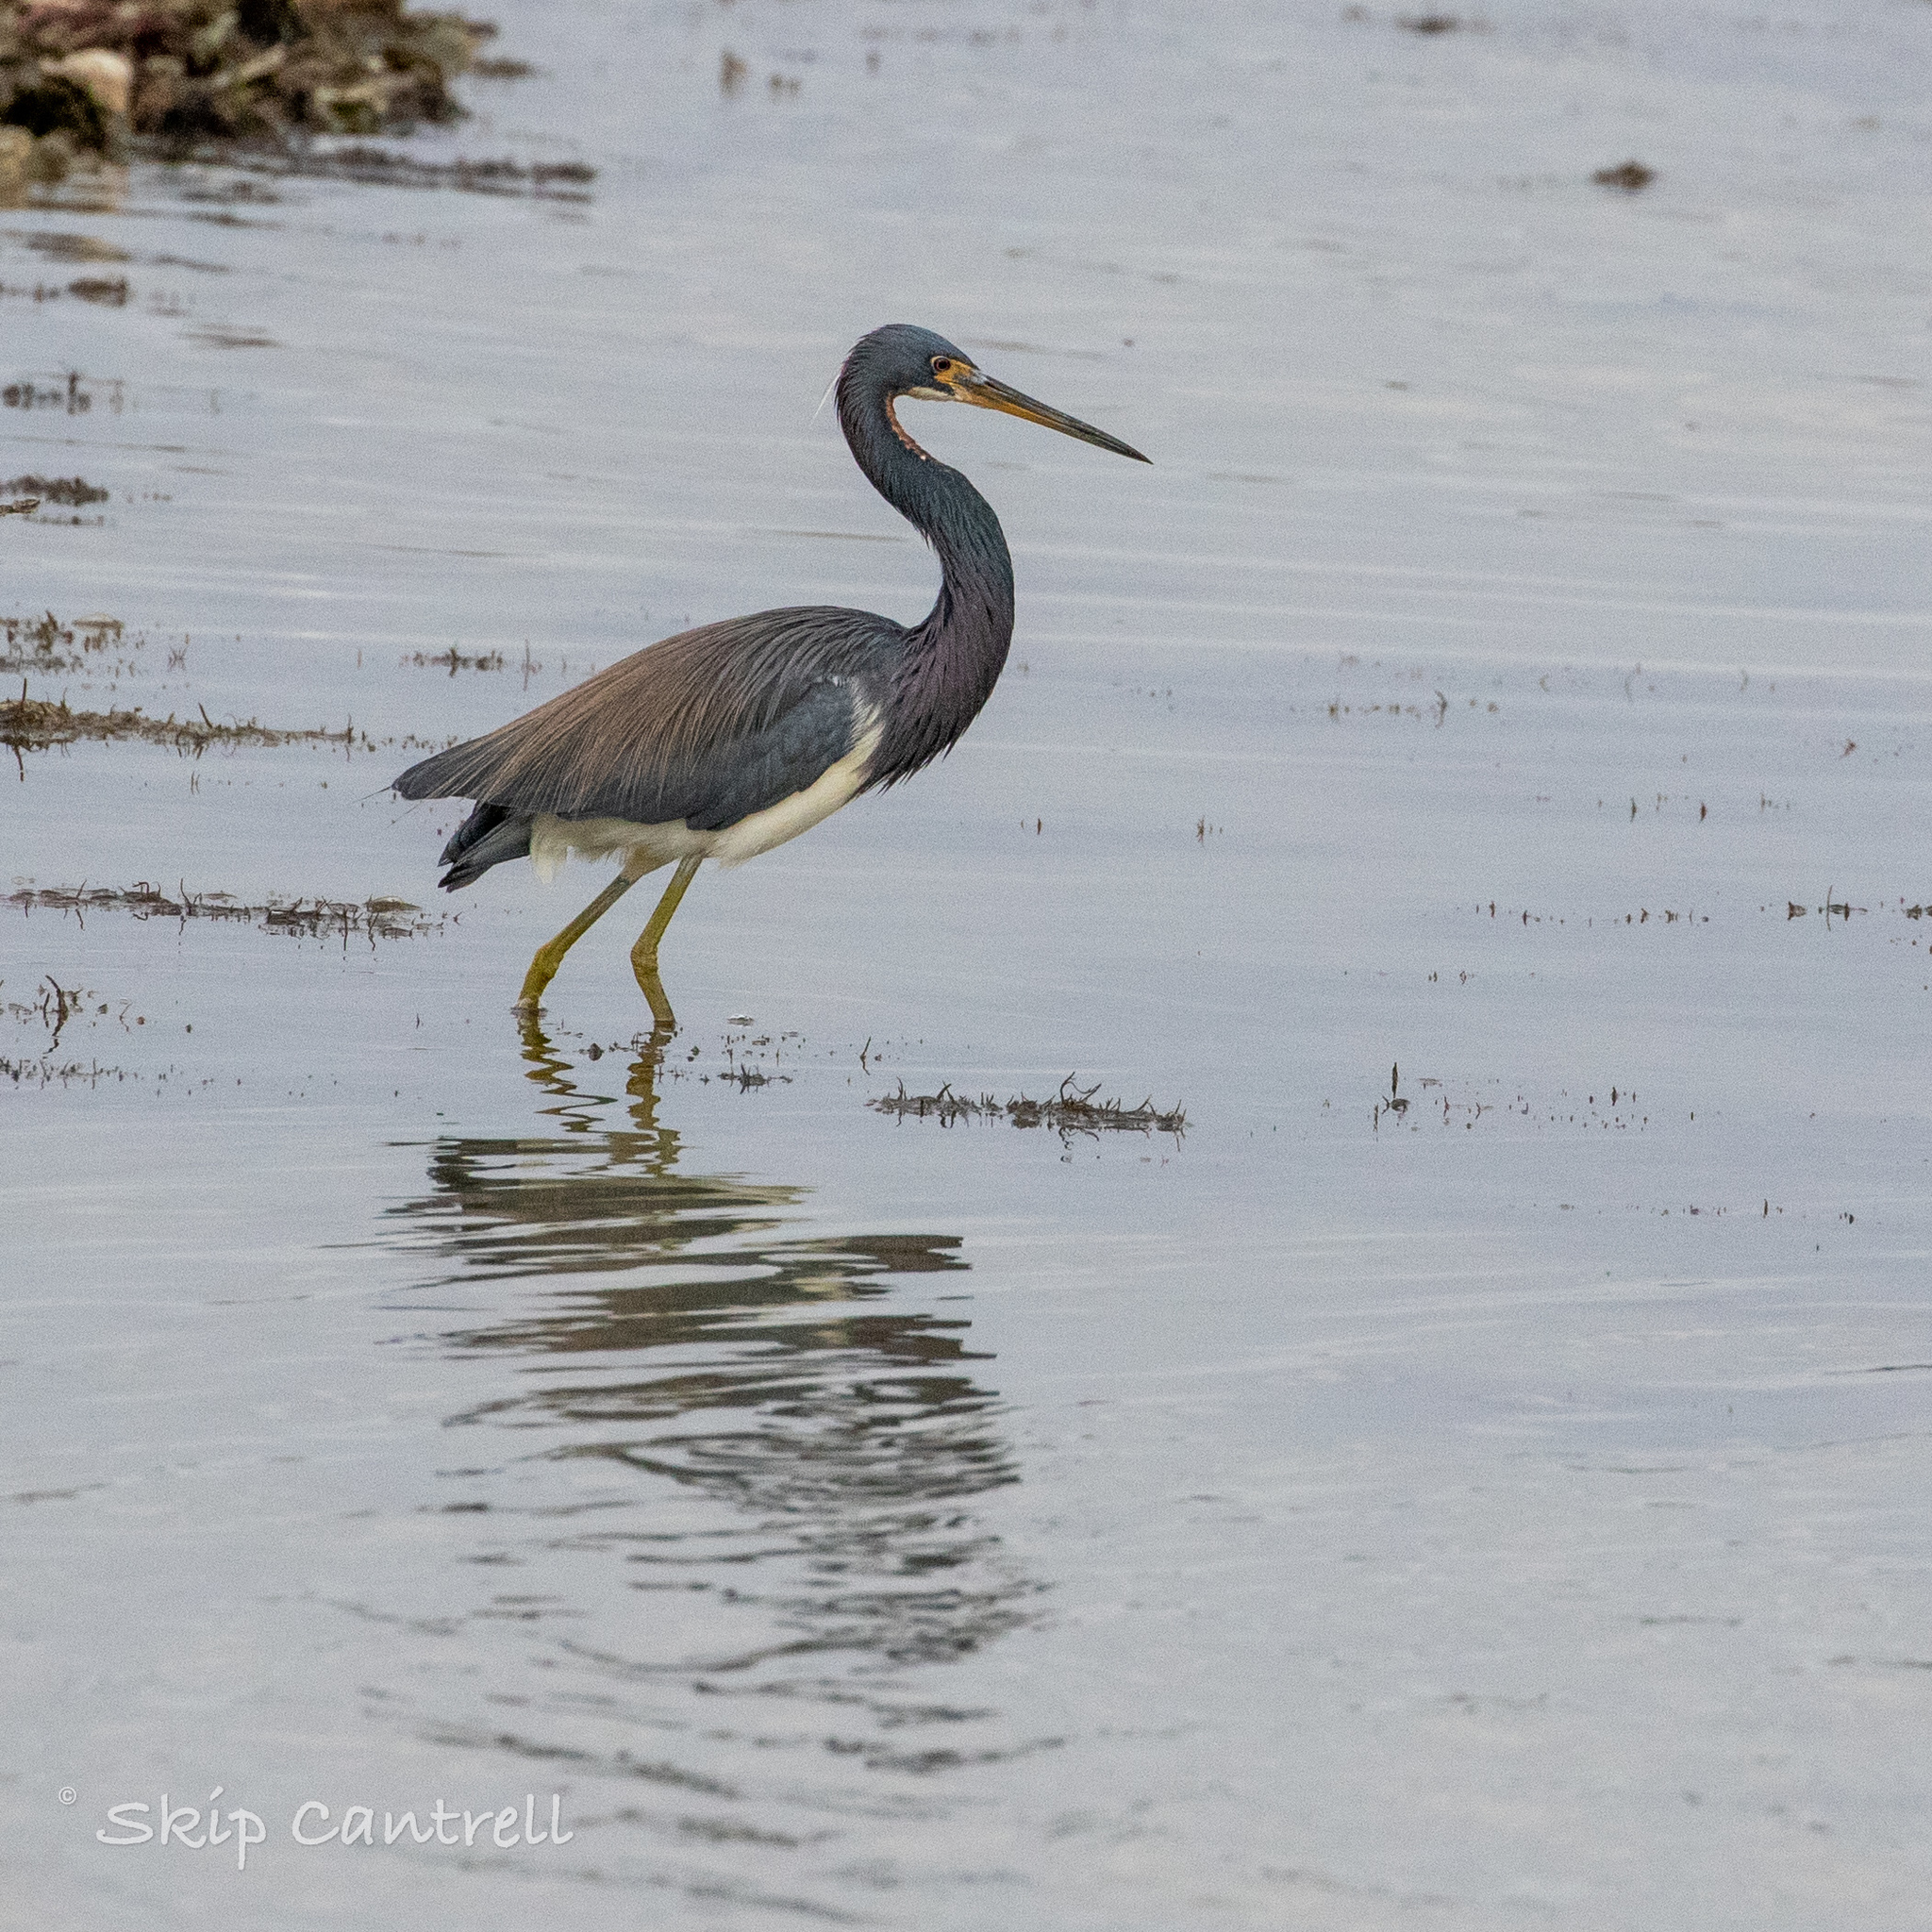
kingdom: Animalia
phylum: Chordata
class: Aves
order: Pelecaniformes
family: Ardeidae
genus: Egretta
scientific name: Egretta tricolor
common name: Tricolored heron
